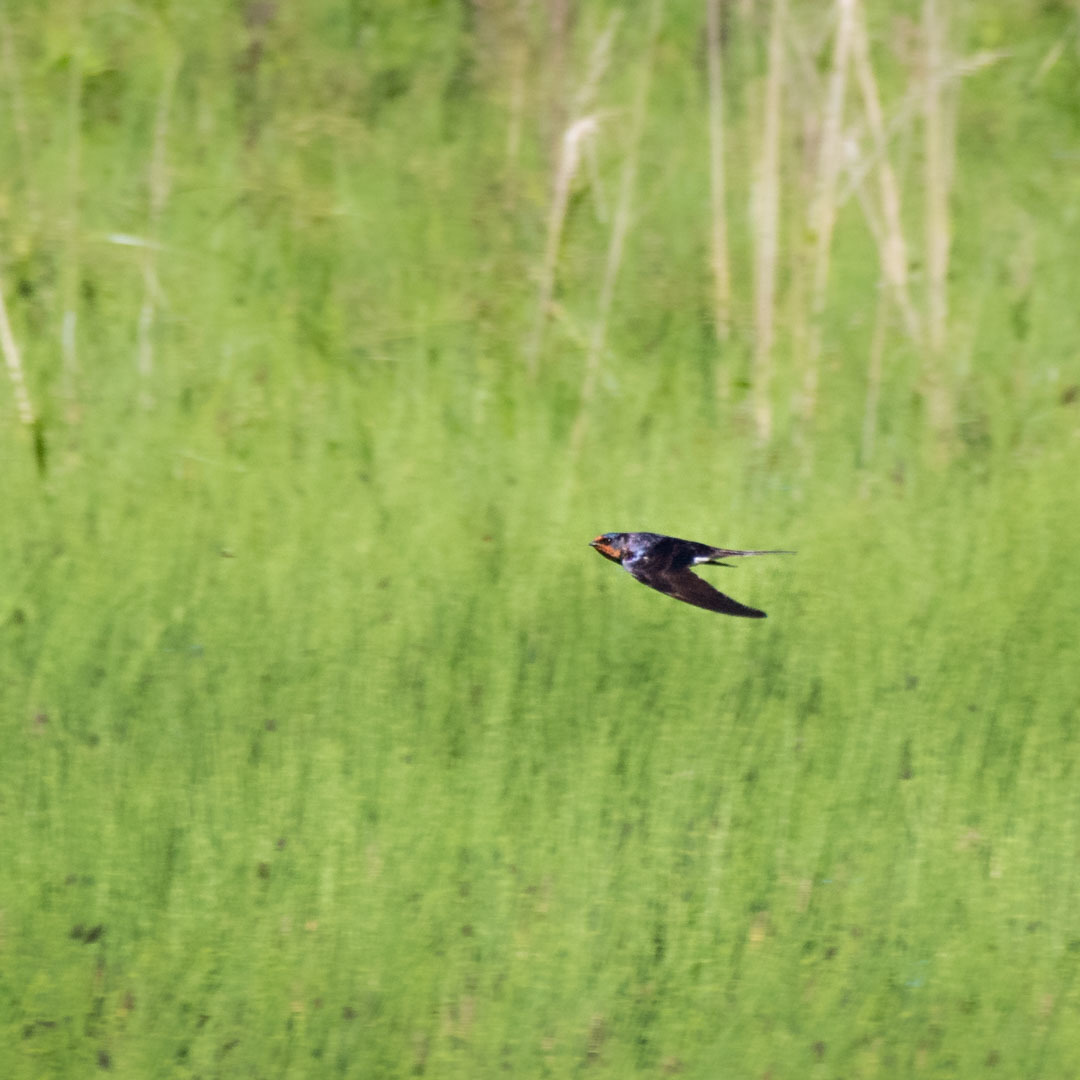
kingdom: Animalia
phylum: Chordata
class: Aves
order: Passeriformes
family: Hirundinidae
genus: Hirundo
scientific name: Hirundo rustica
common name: Barn swallow
